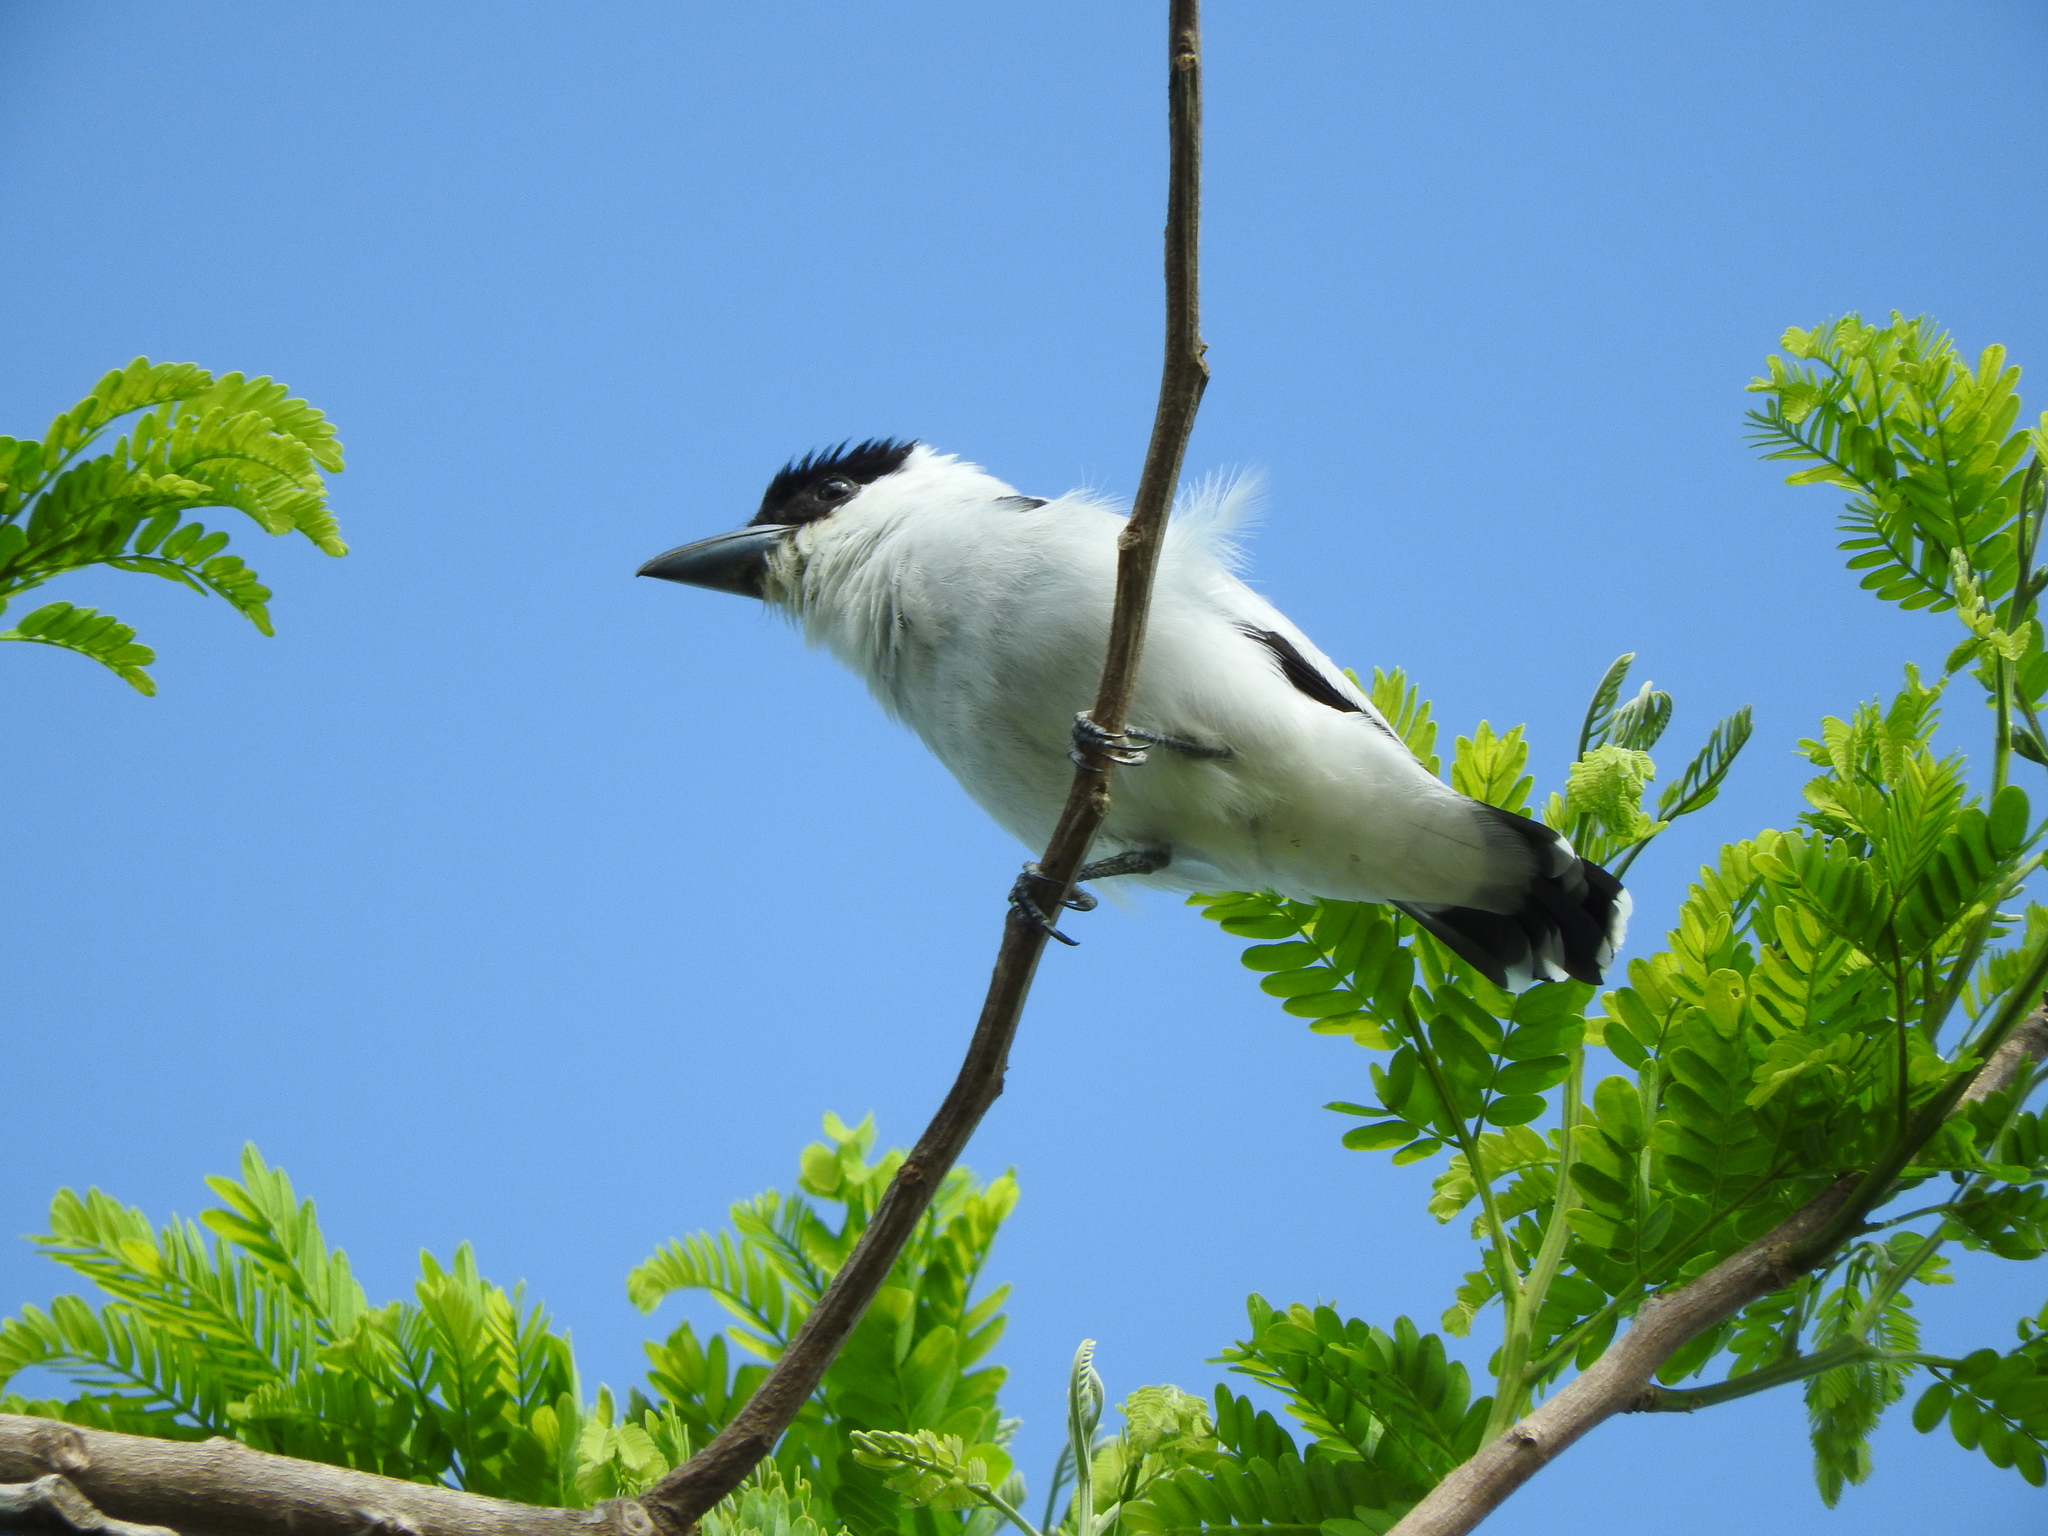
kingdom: Animalia
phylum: Chordata
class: Aves
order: Passeriformes
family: Cotingidae
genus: Tityra
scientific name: Tityra inquisitor
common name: Black-crowned tityra
